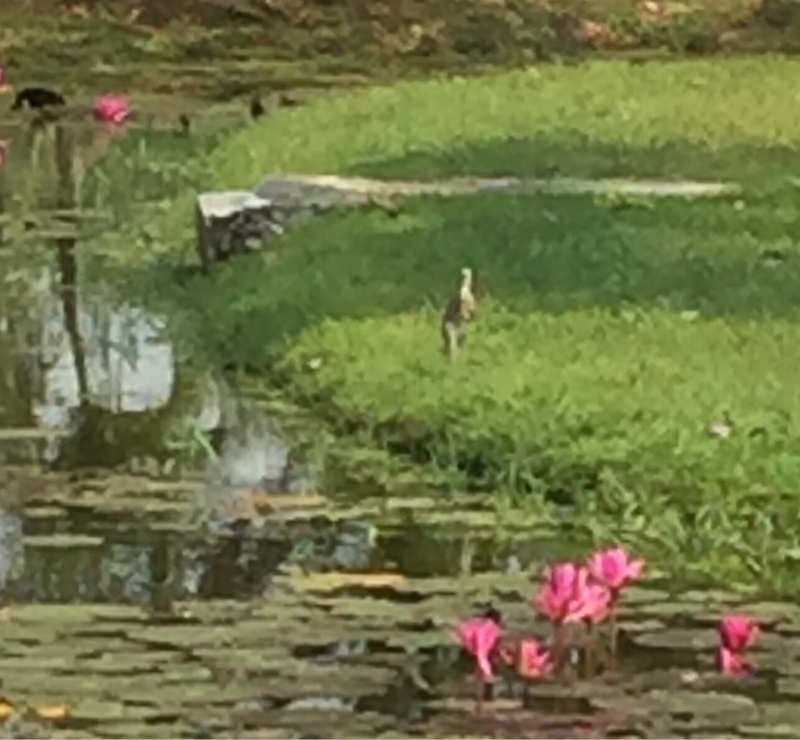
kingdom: Animalia
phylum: Chordata
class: Aves
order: Pelecaniformes
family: Ardeidae
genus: Ardea
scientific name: Ardea cinerea
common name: Grey heron
